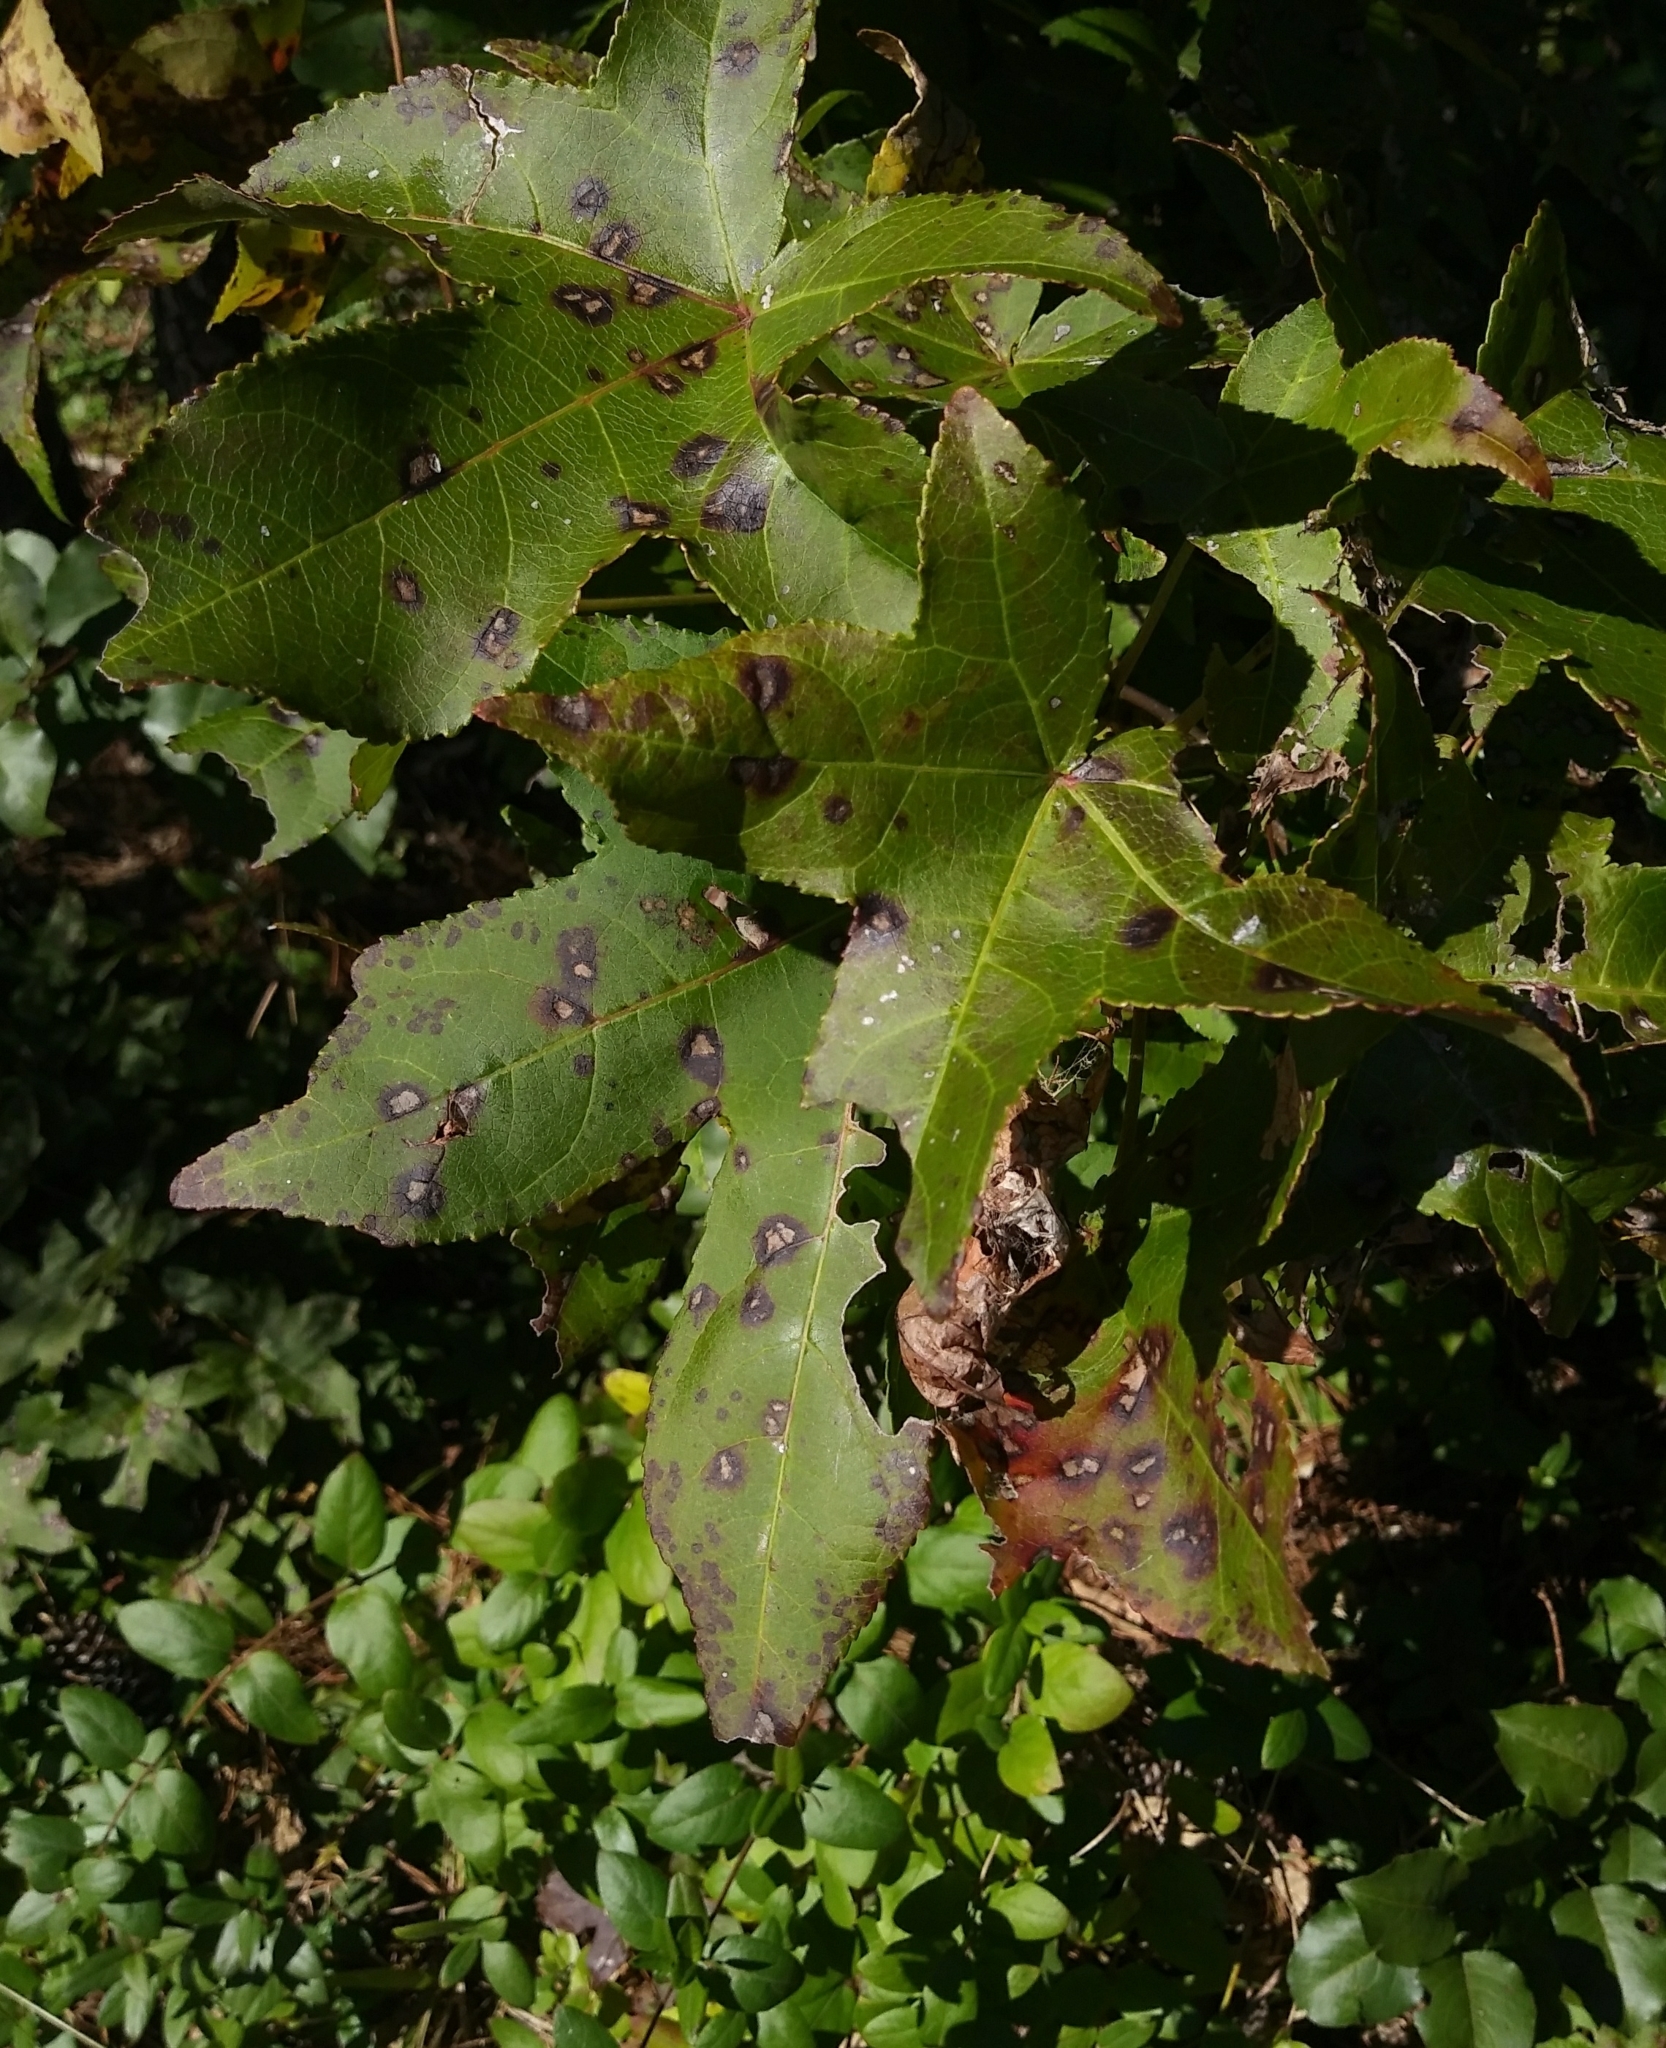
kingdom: Plantae
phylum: Tracheophyta
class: Magnoliopsida
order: Saxifragales
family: Altingiaceae
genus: Liquidambar
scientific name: Liquidambar styraciflua
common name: Sweet gum
